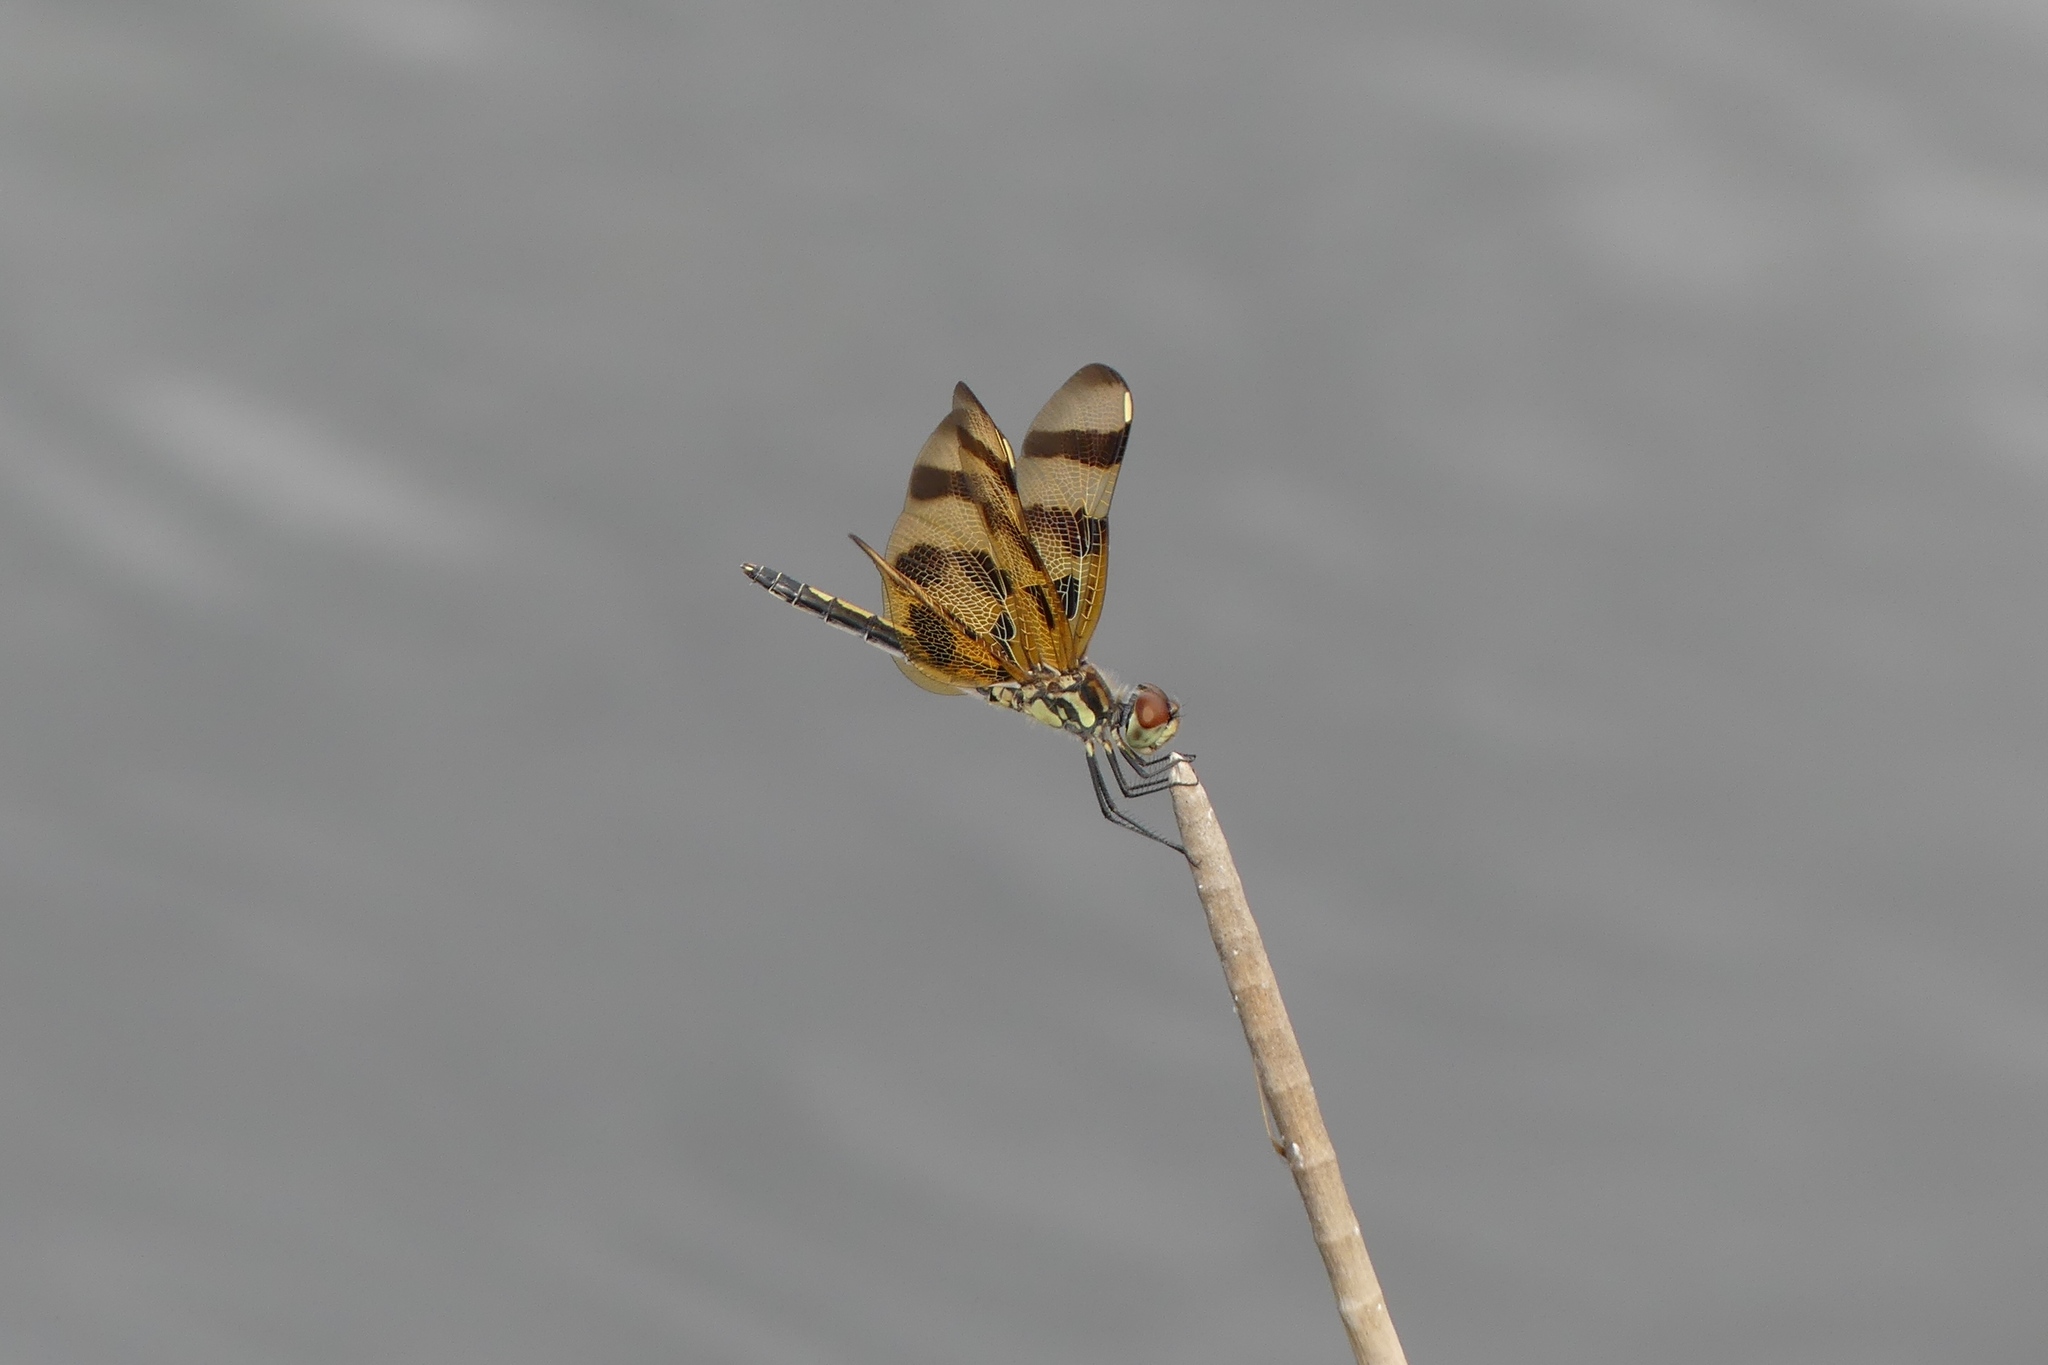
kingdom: Animalia
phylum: Arthropoda
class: Insecta
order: Odonata
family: Libellulidae
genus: Celithemis
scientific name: Celithemis eponina
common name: Halloween pennant
